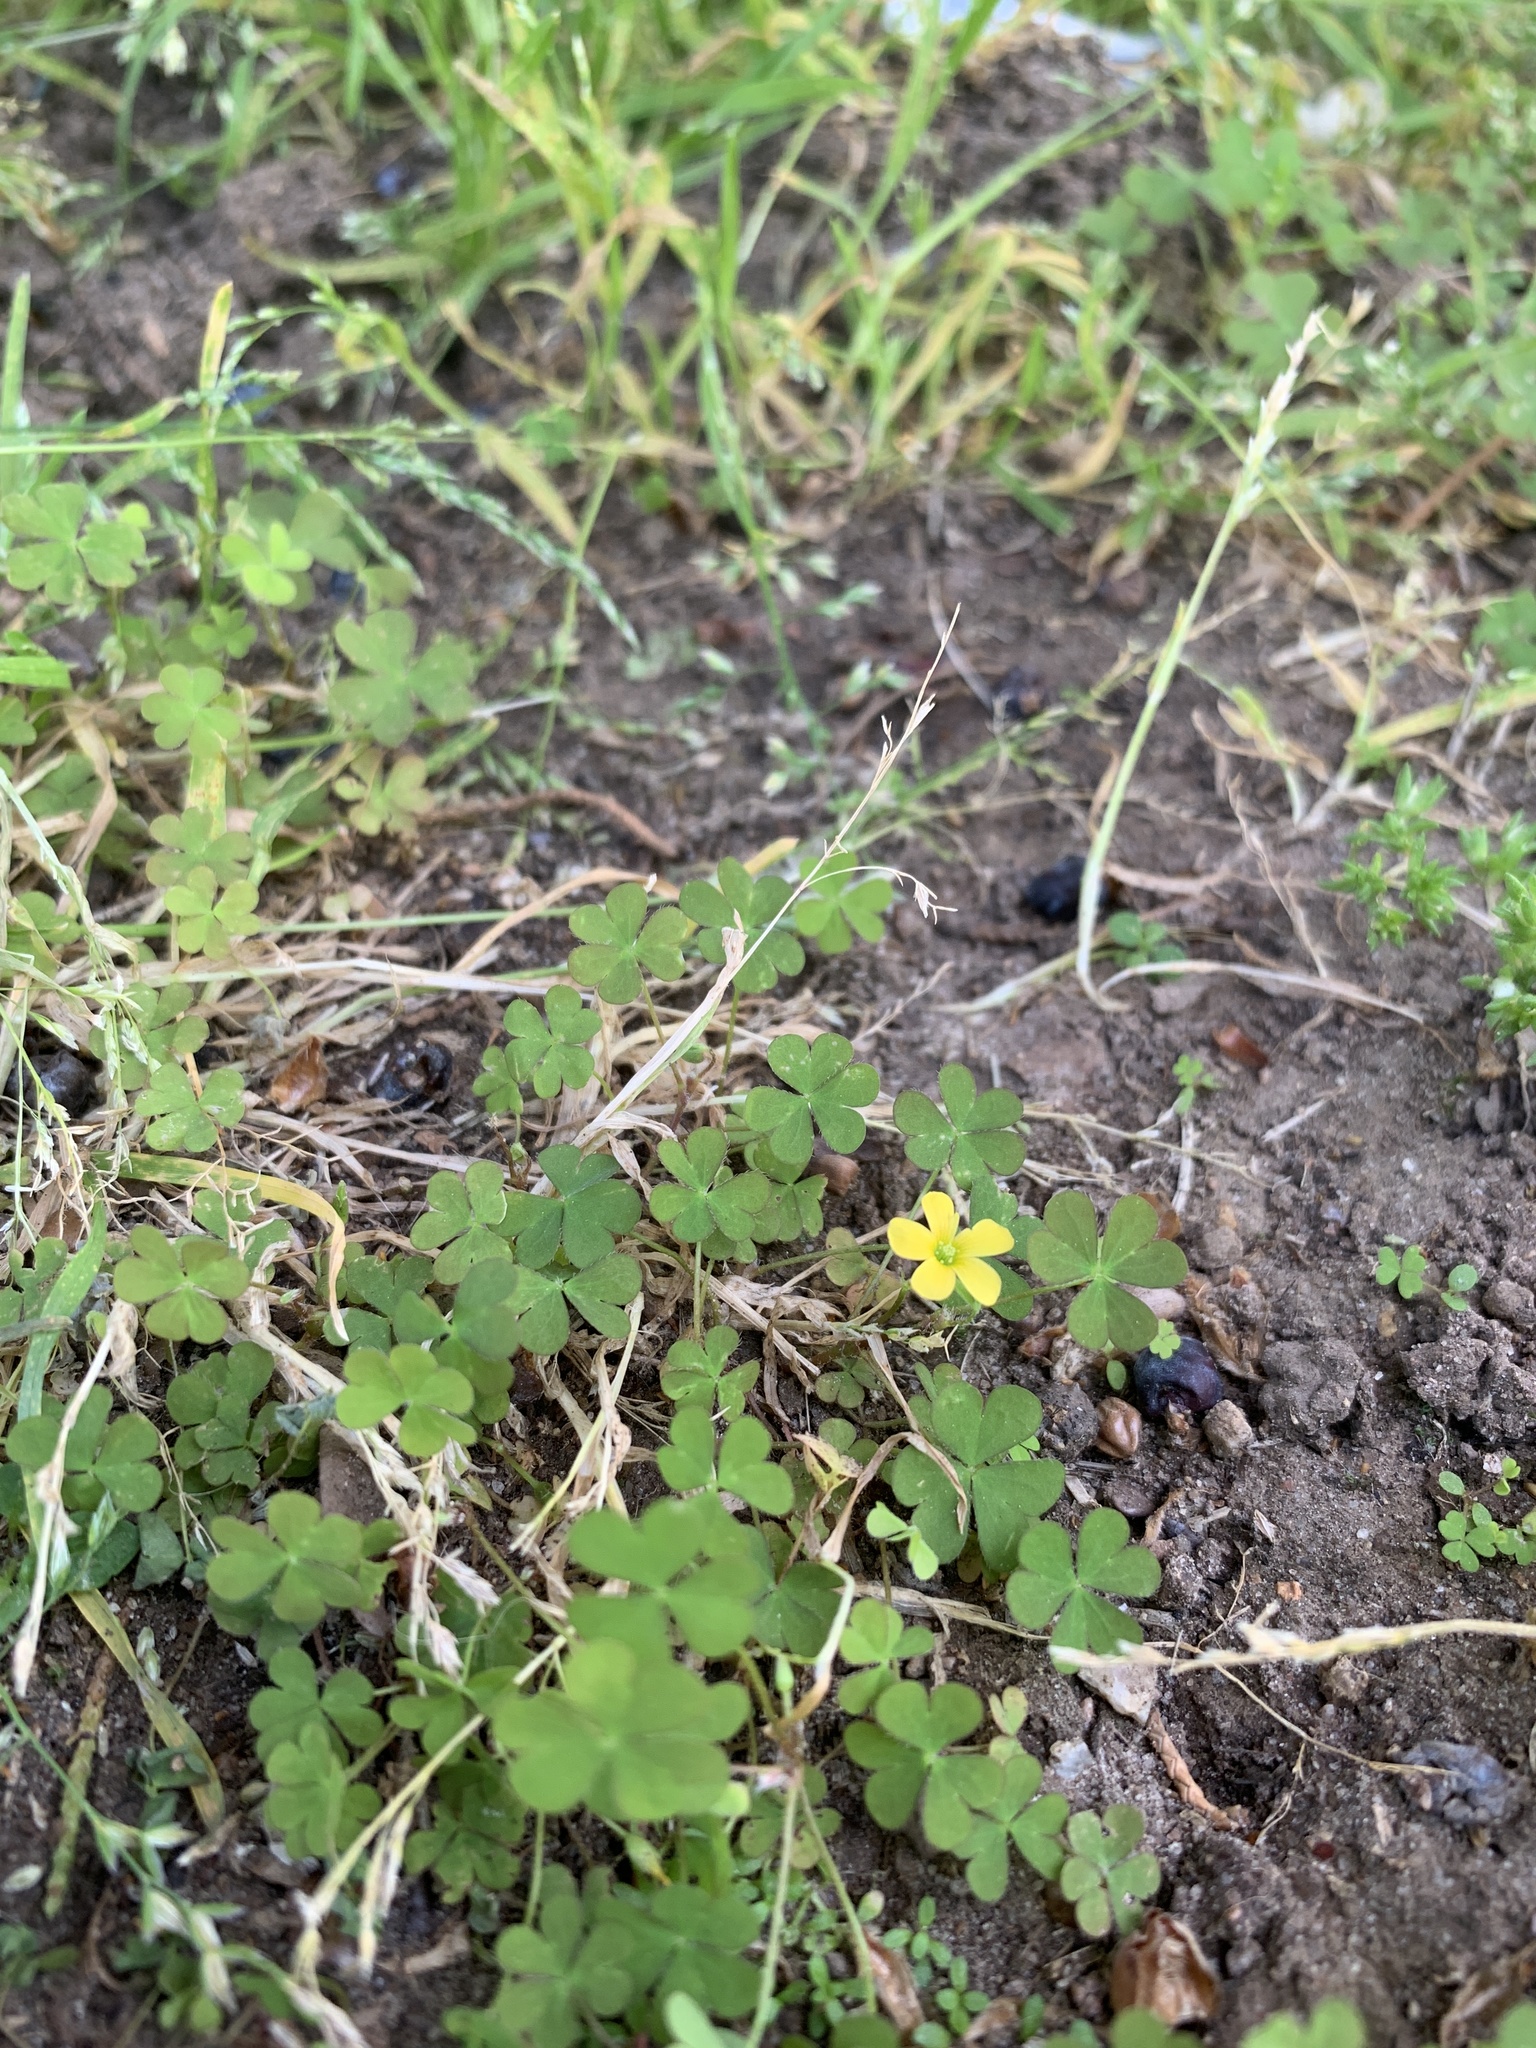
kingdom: Plantae
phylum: Tracheophyta
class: Magnoliopsida
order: Oxalidales
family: Oxalidaceae
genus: Oxalis
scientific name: Oxalis corniculata
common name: Procumbent yellow-sorrel
